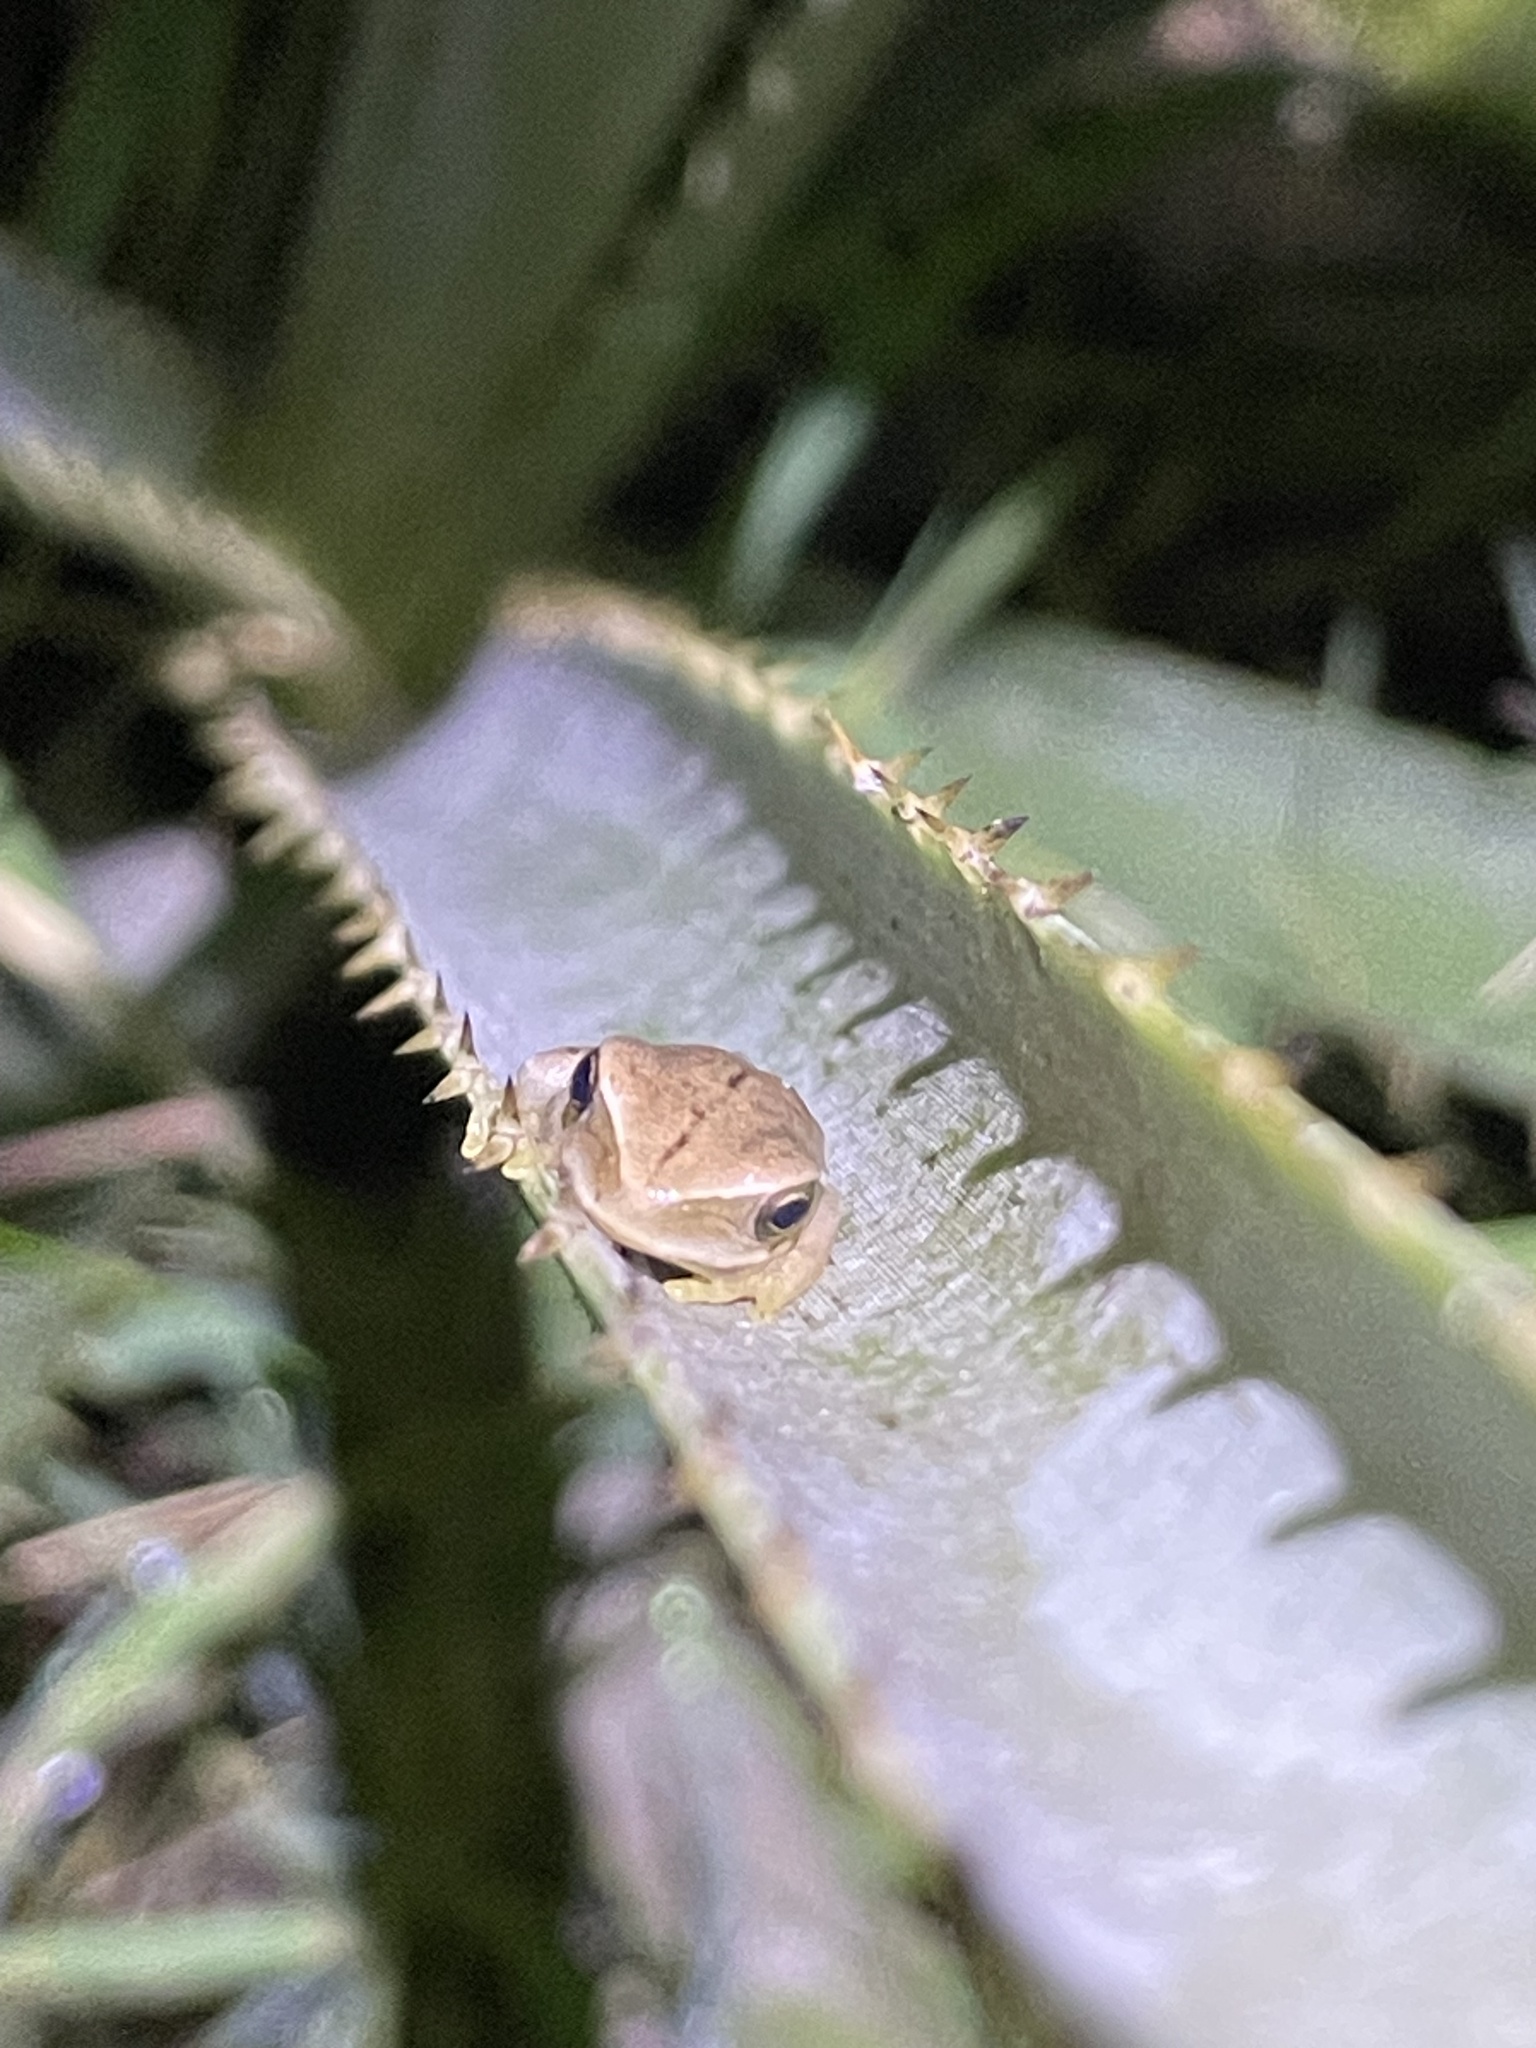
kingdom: Animalia
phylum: Chordata
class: Amphibia
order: Anura
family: Hylidae
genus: Boana
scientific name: Boana pulchella
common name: Montevideo treefrog
